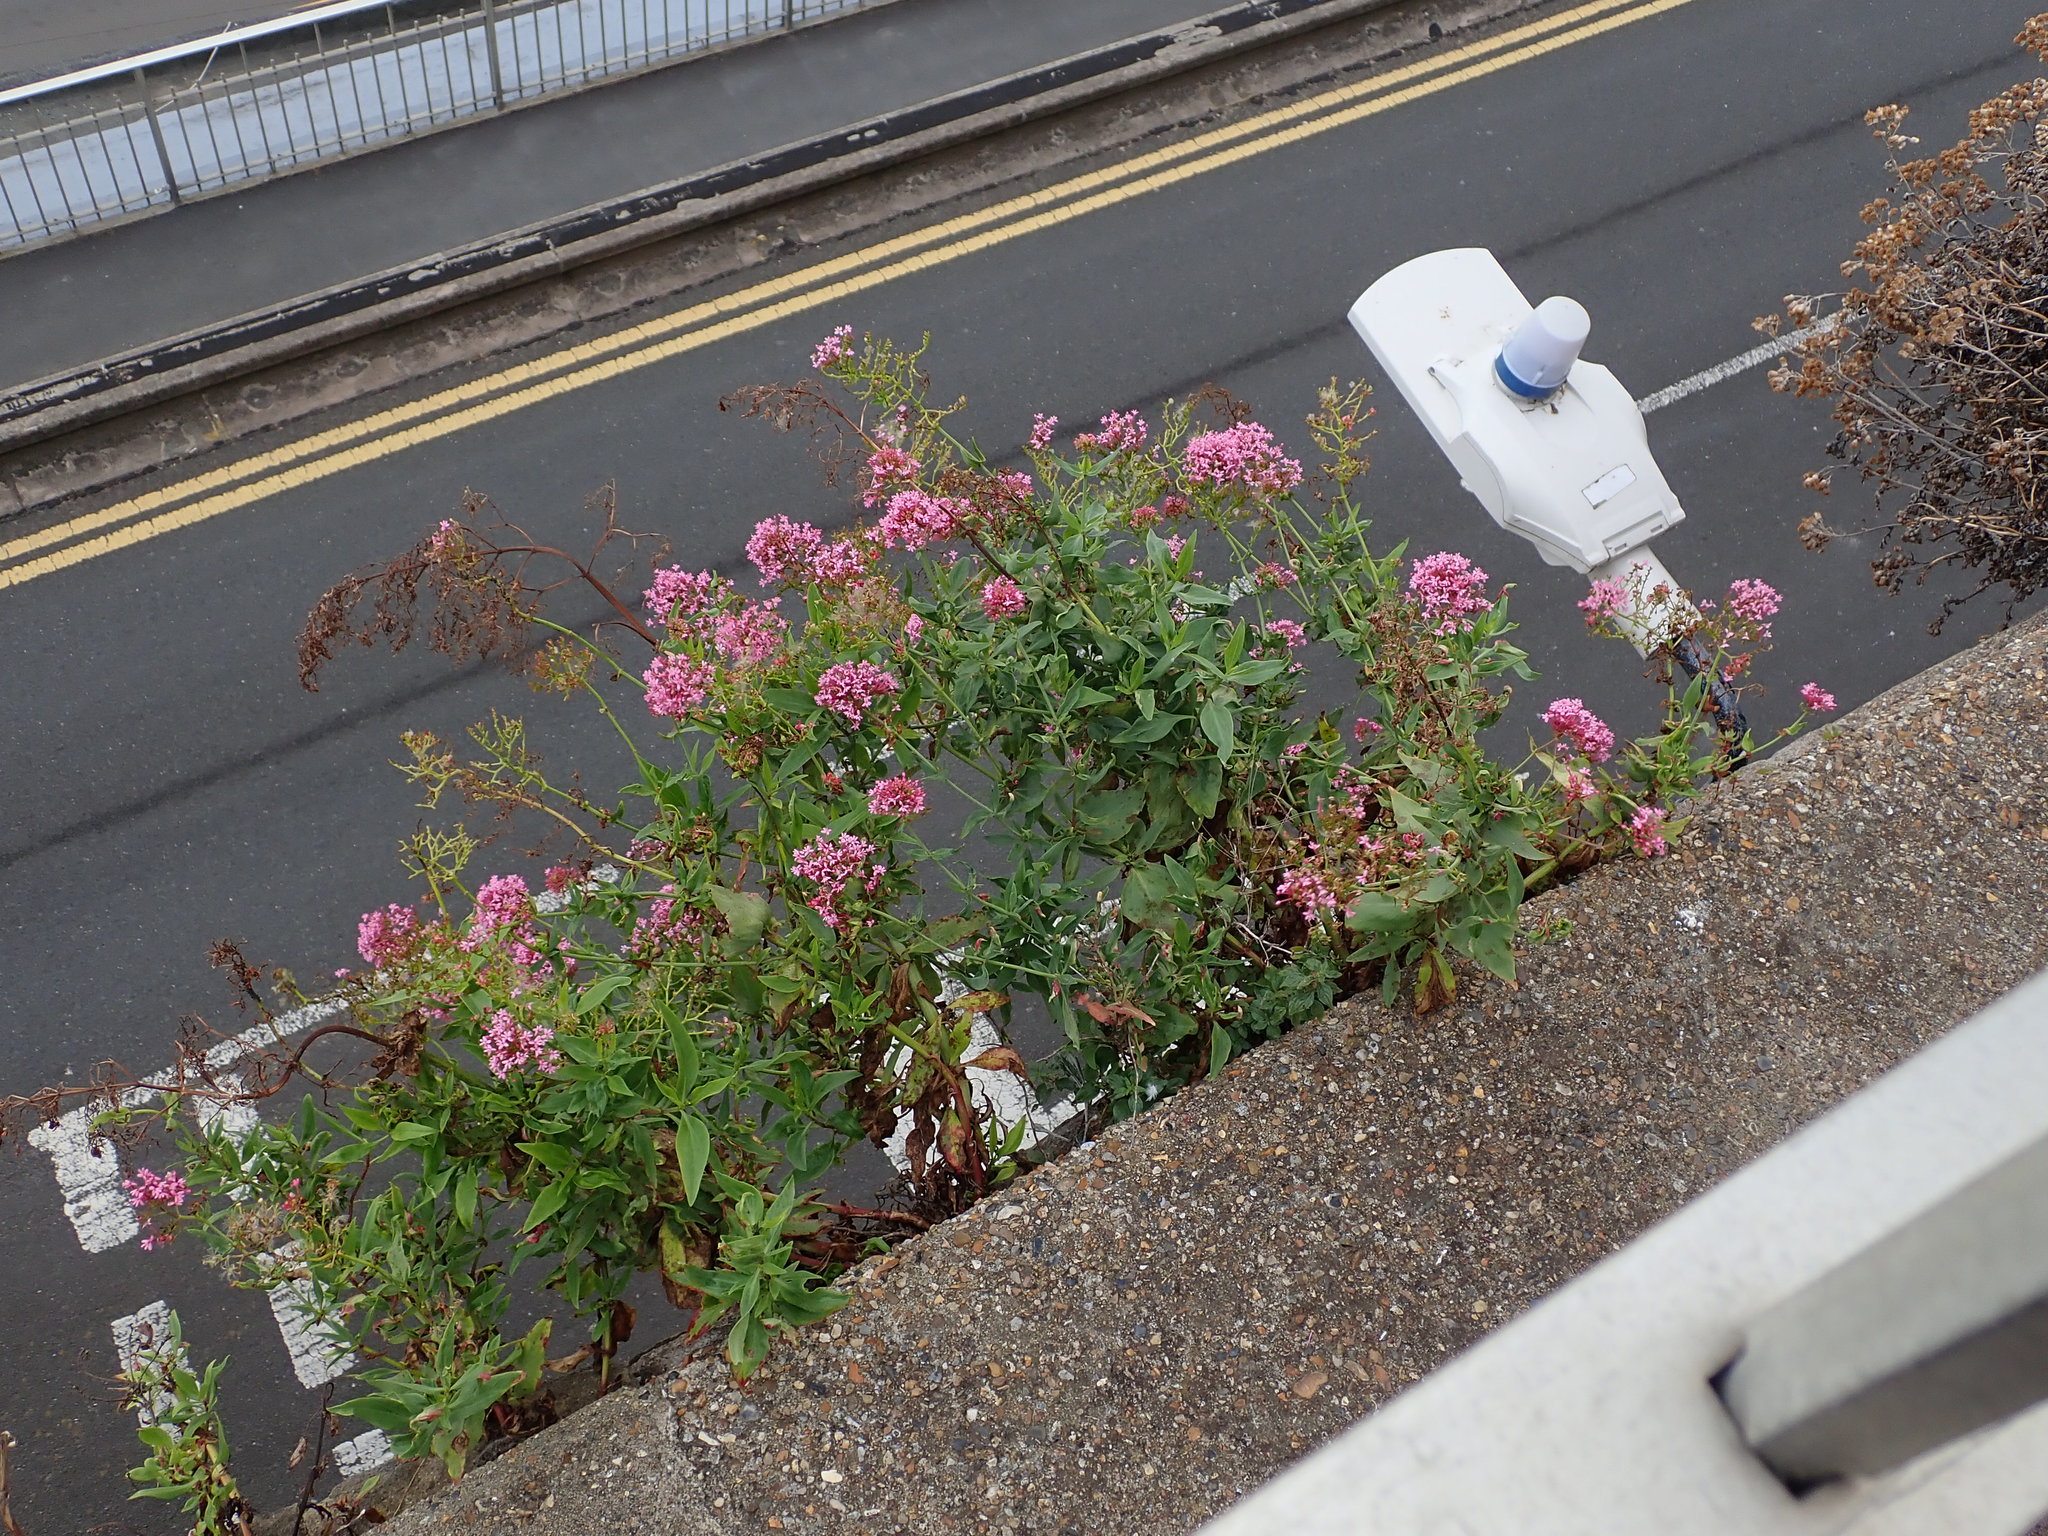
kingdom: Plantae
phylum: Tracheophyta
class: Magnoliopsida
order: Dipsacales
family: Caprifoliaceae
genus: Centranthus
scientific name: Centranthus ruber
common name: Red valerian
